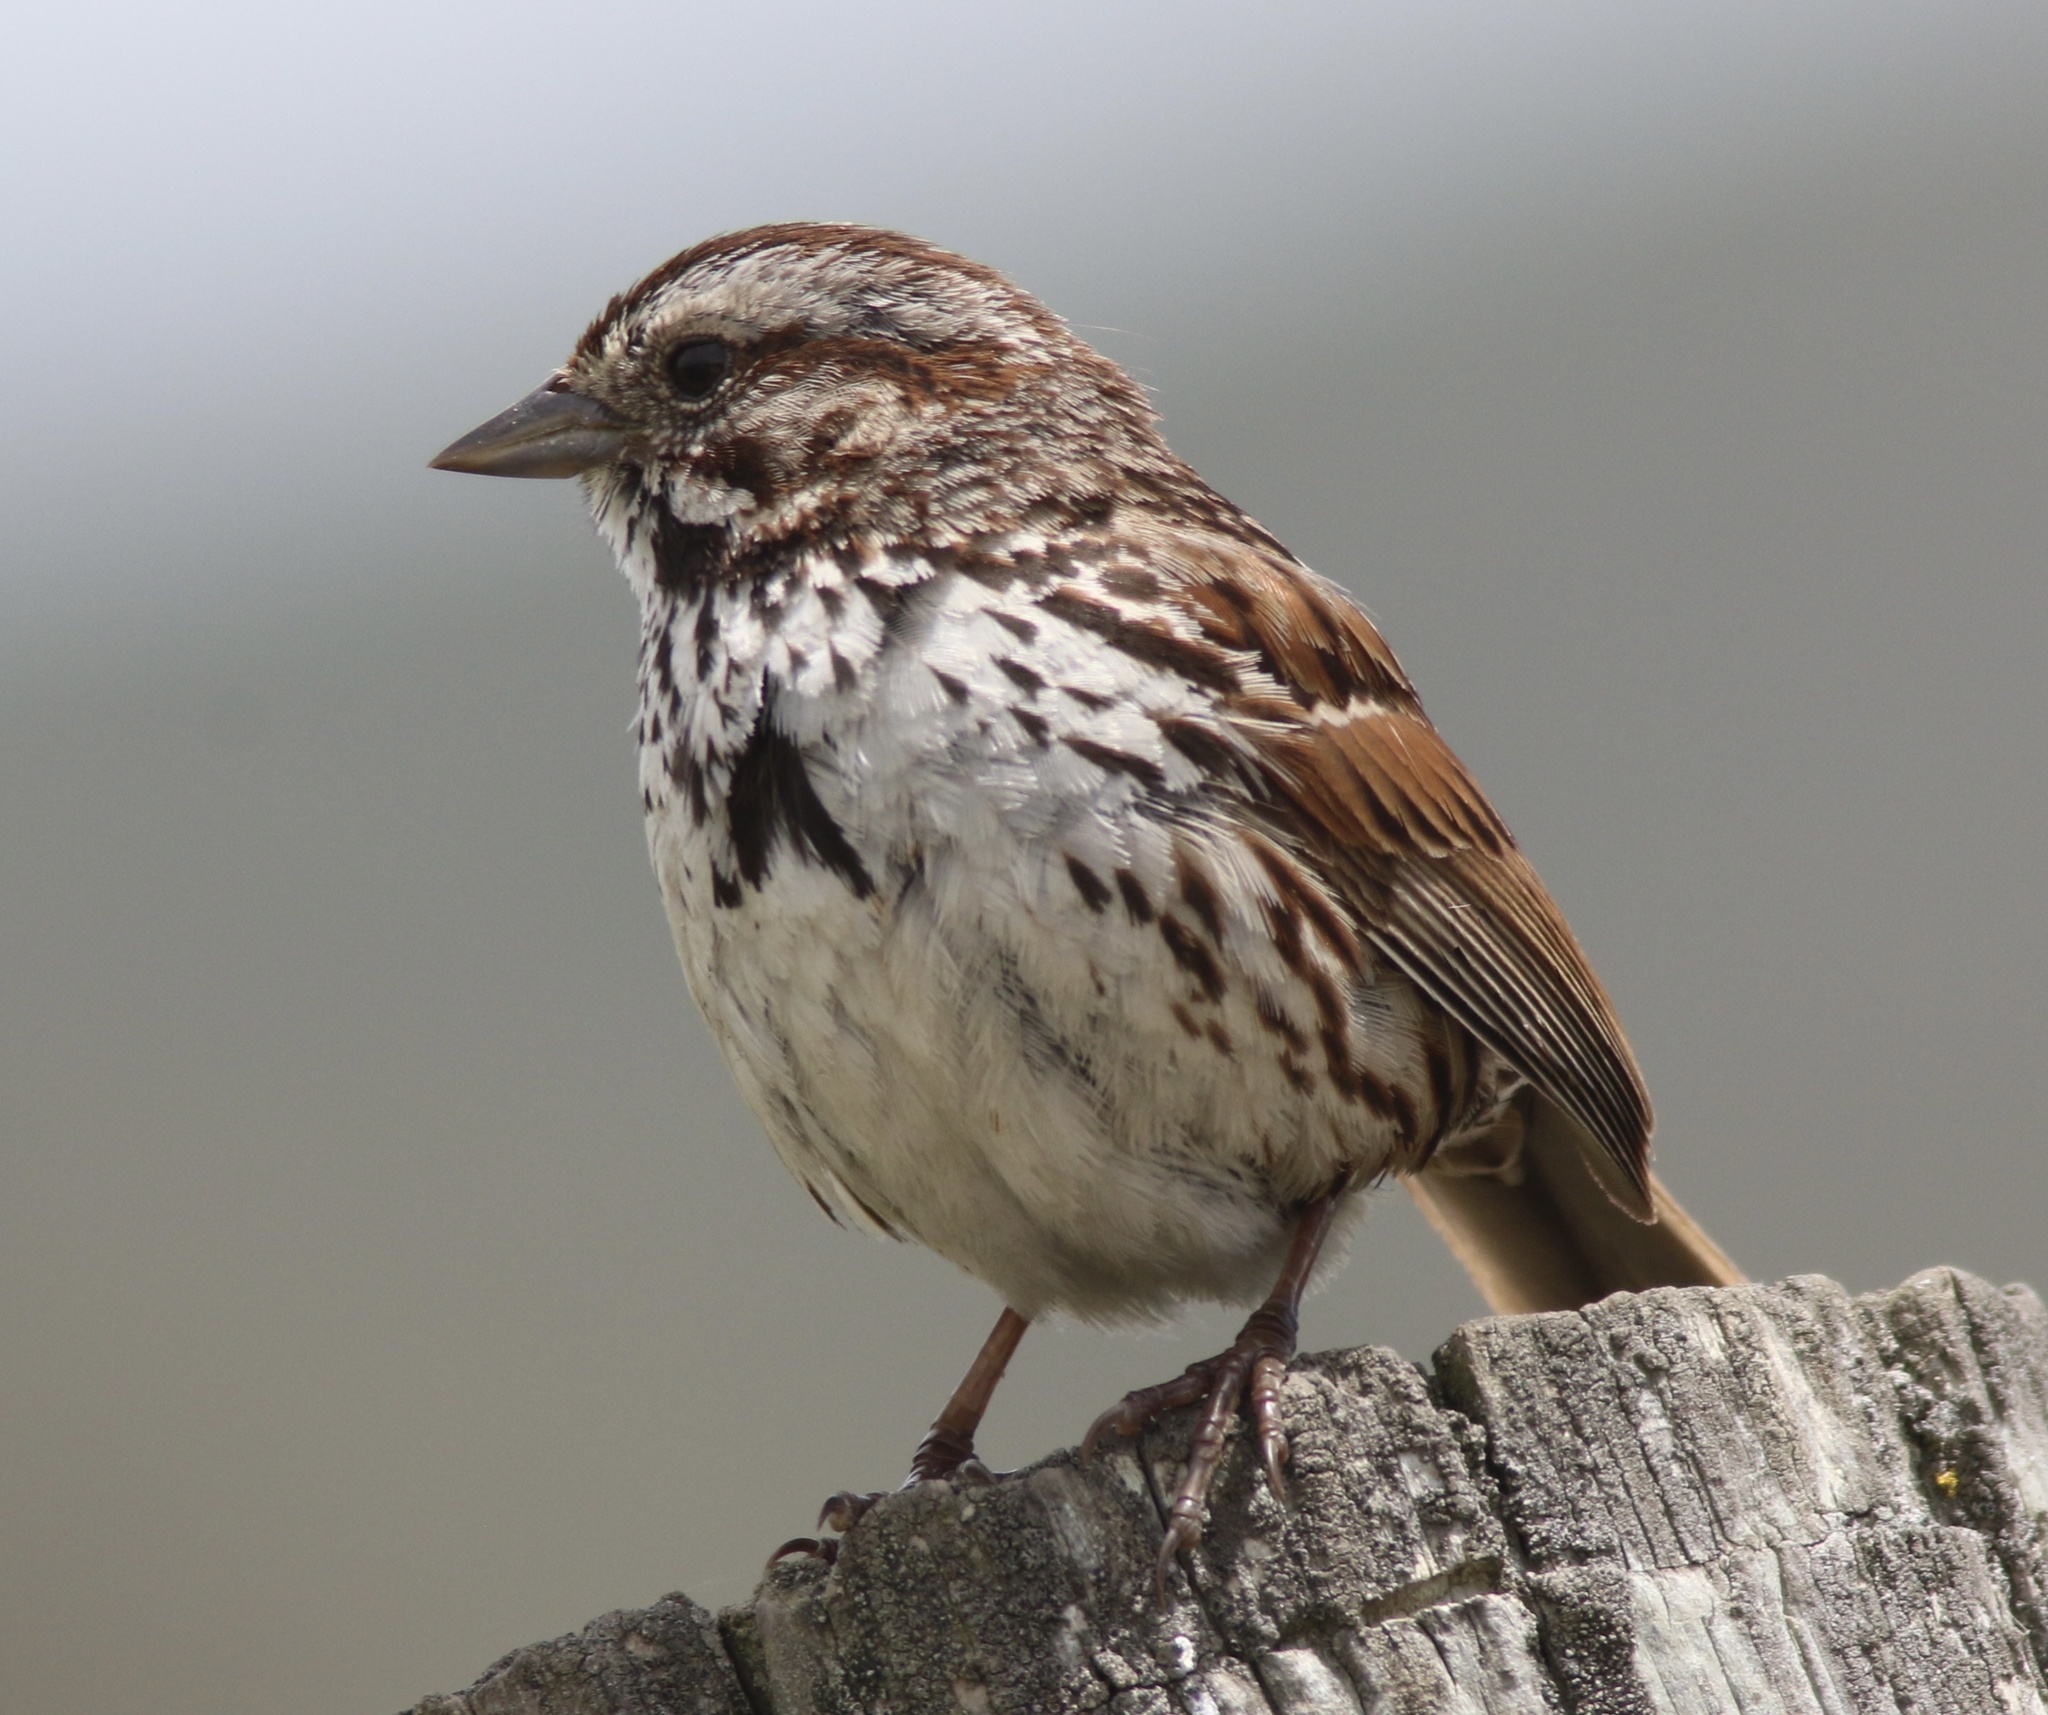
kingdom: Animalia
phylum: Chordata
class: Aves
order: Passeriformes
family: Passerellidae
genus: Melospiza
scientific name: Melospiza melodia
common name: Song sparrow
